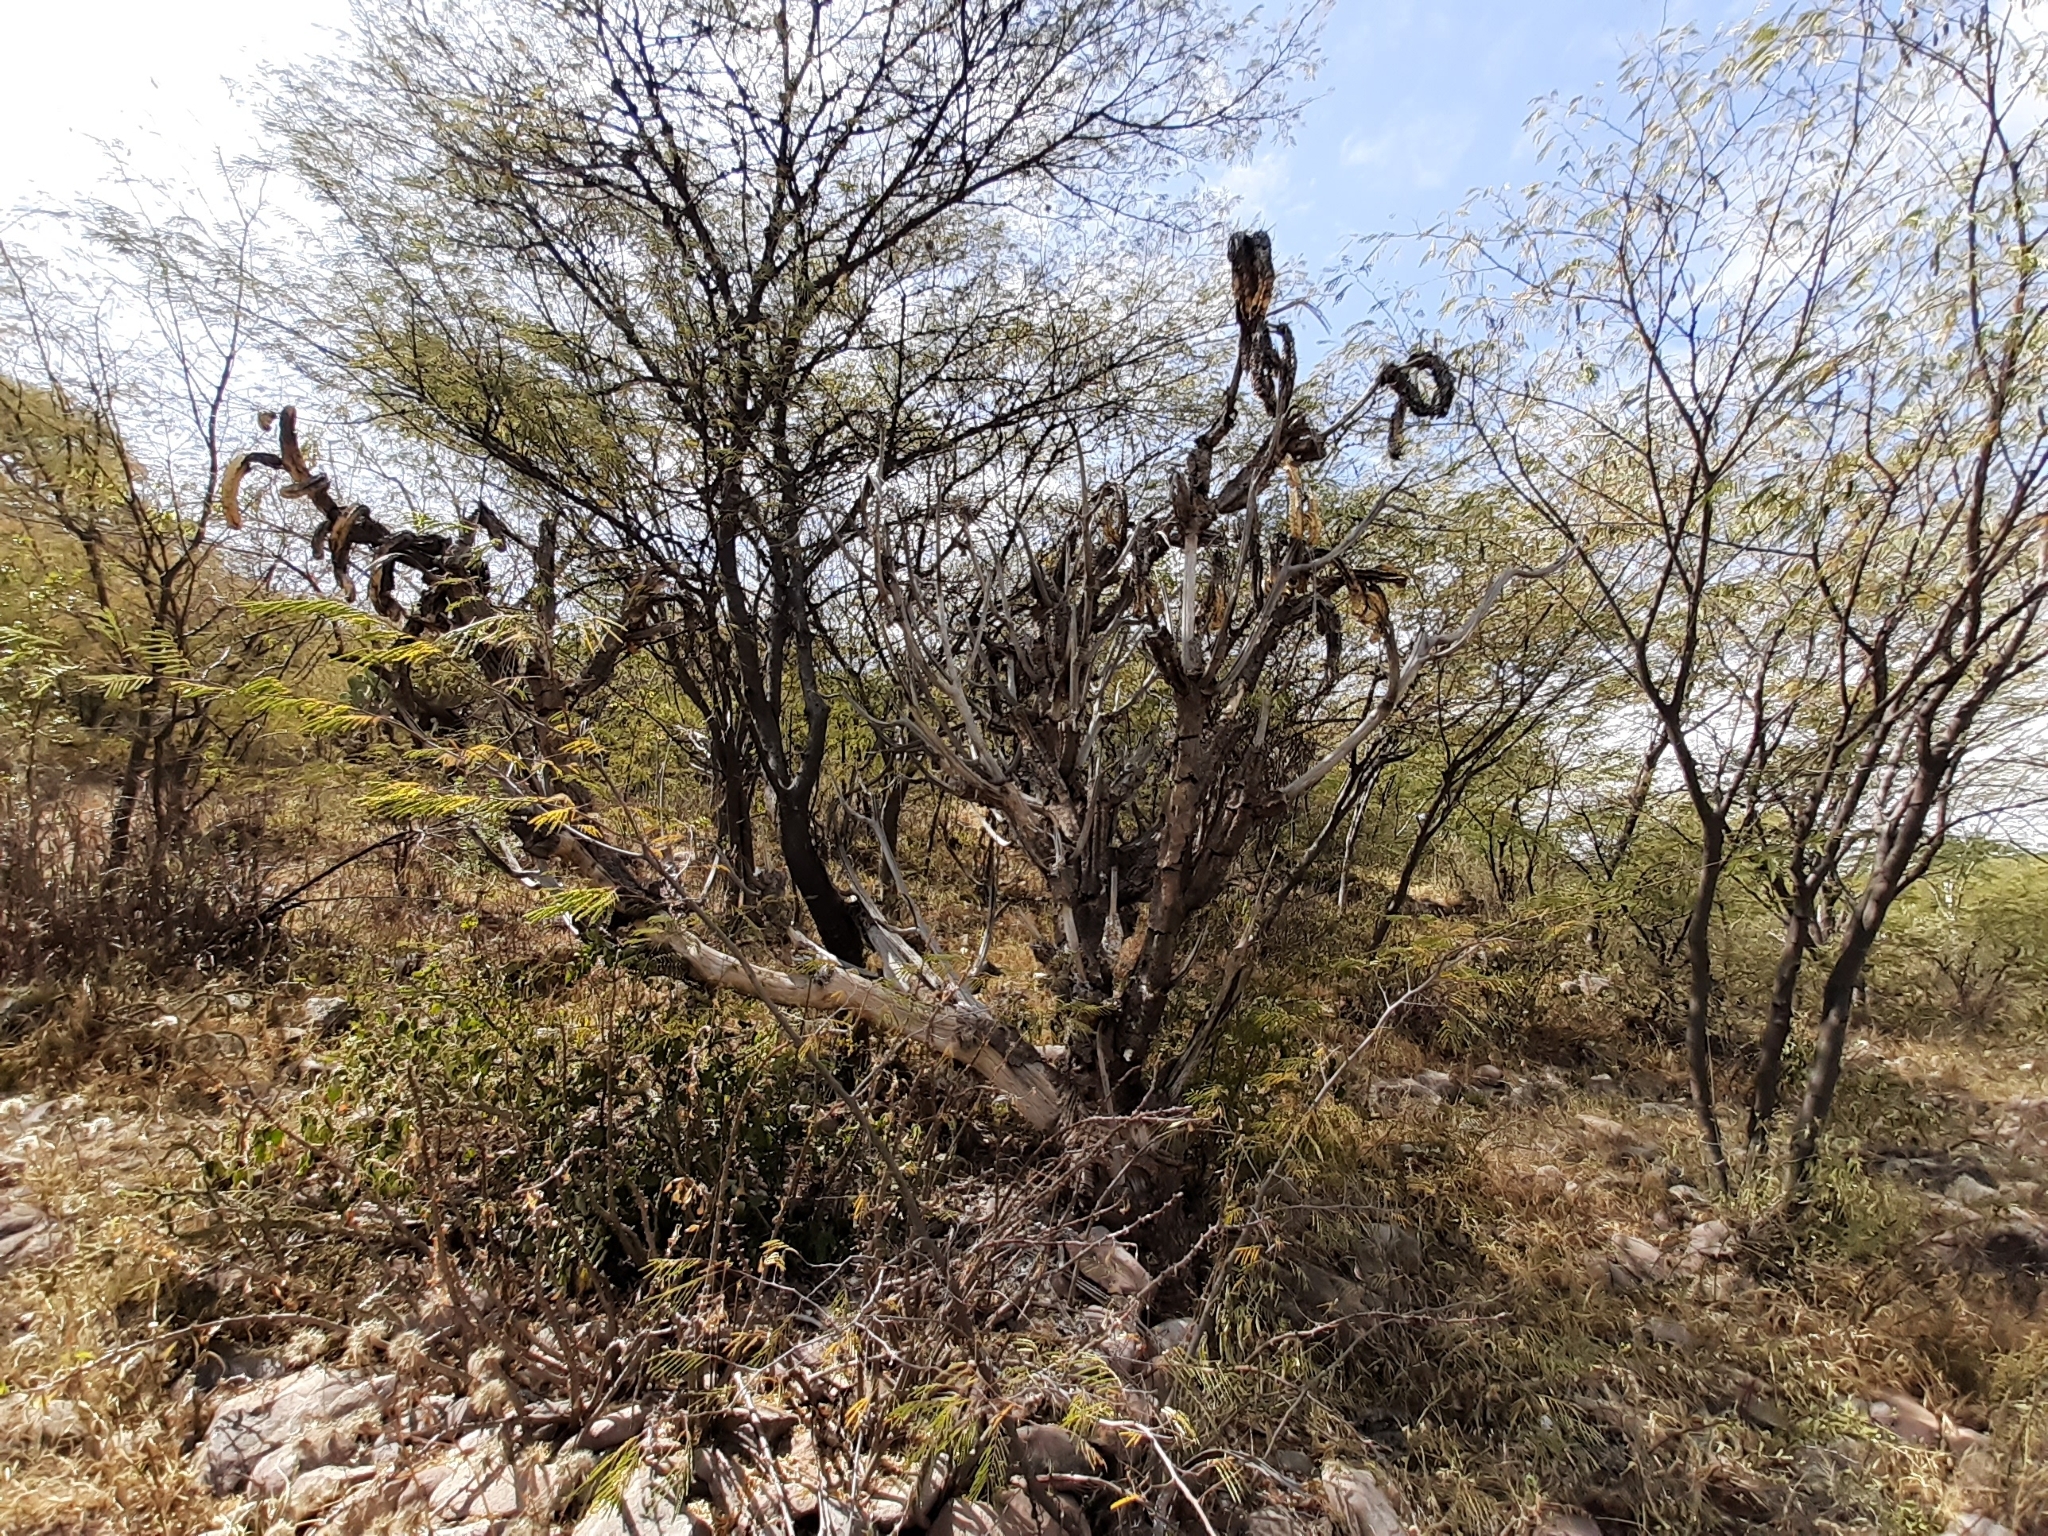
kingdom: Plantae
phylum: Tracheophyta
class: Magnoliopsida
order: Caryophyllales
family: Cactaceae
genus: Myrtillocactus
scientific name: Myrtillocactus geometrizans
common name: Bilberry cactus
